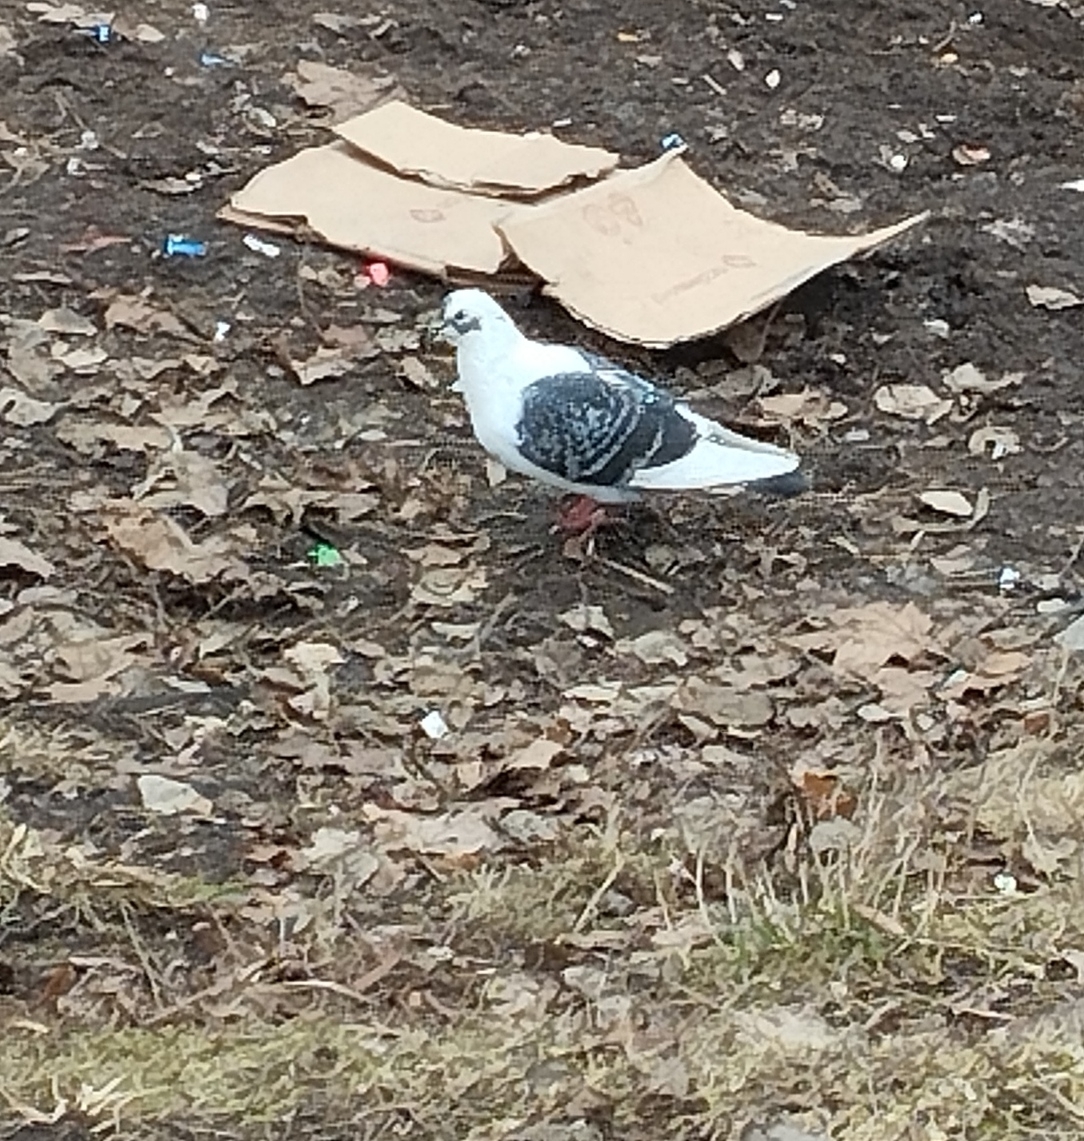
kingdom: Animalia
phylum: Chordata
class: Aves
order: Columbiformes
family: Columbidae
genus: Columba
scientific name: Columba livia
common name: Rock pigeon
